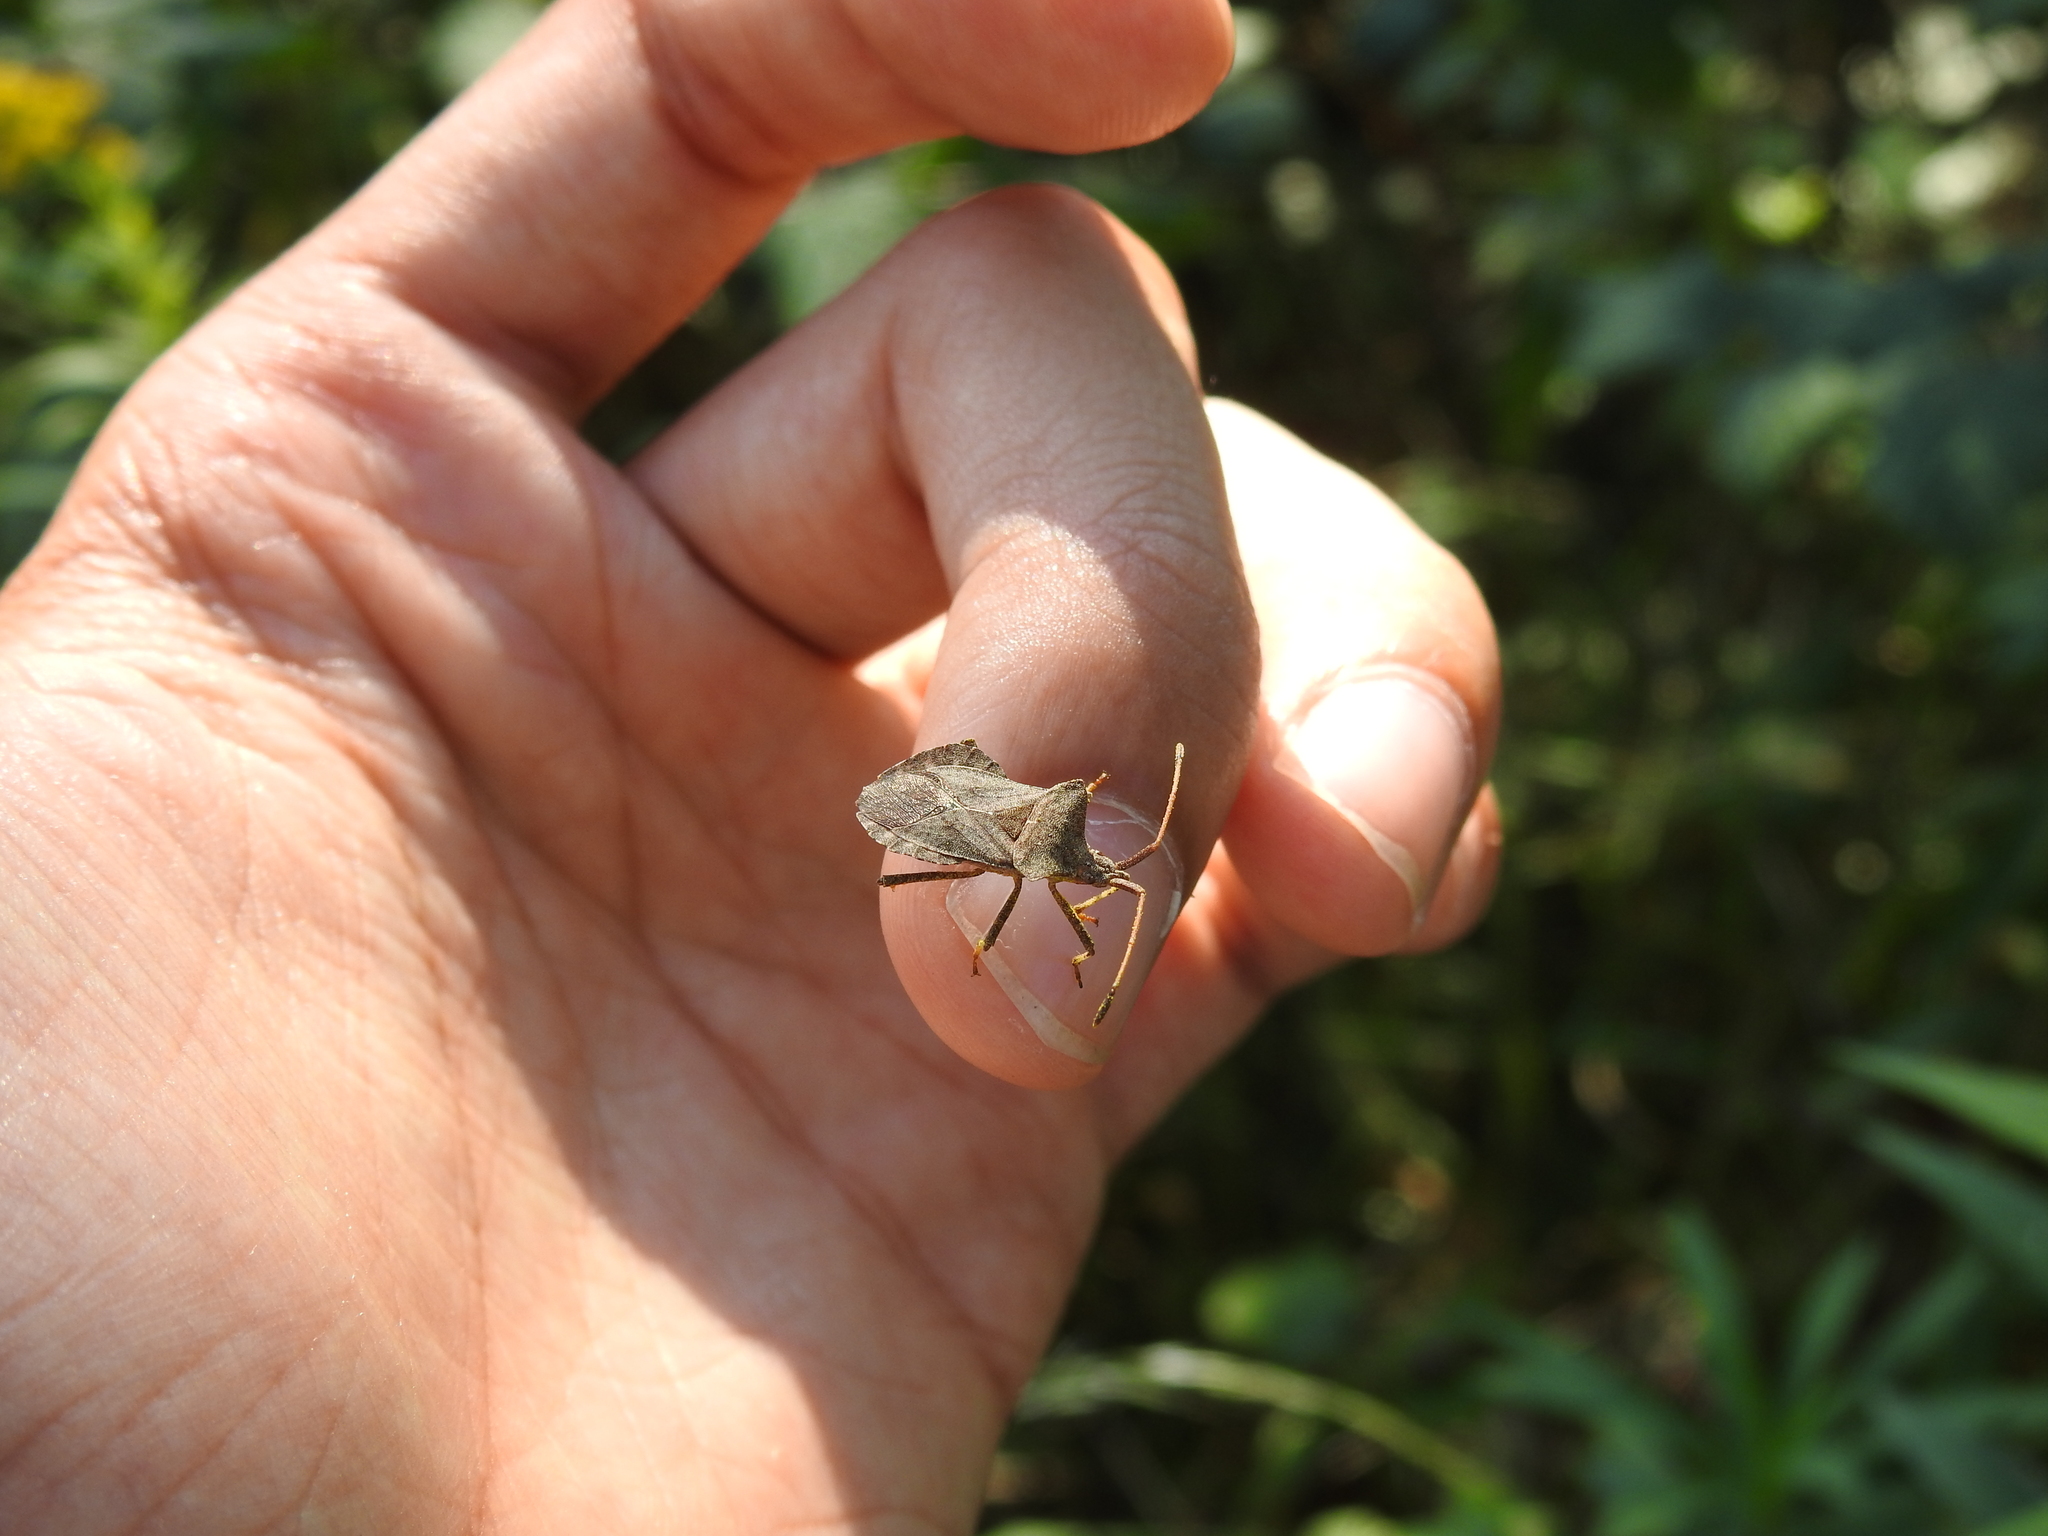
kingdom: Animalia
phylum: Arthropoda
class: Insecta
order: Hemiptera
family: Coreidae
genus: Coreus
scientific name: Coreus marginatus
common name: Dock bug
